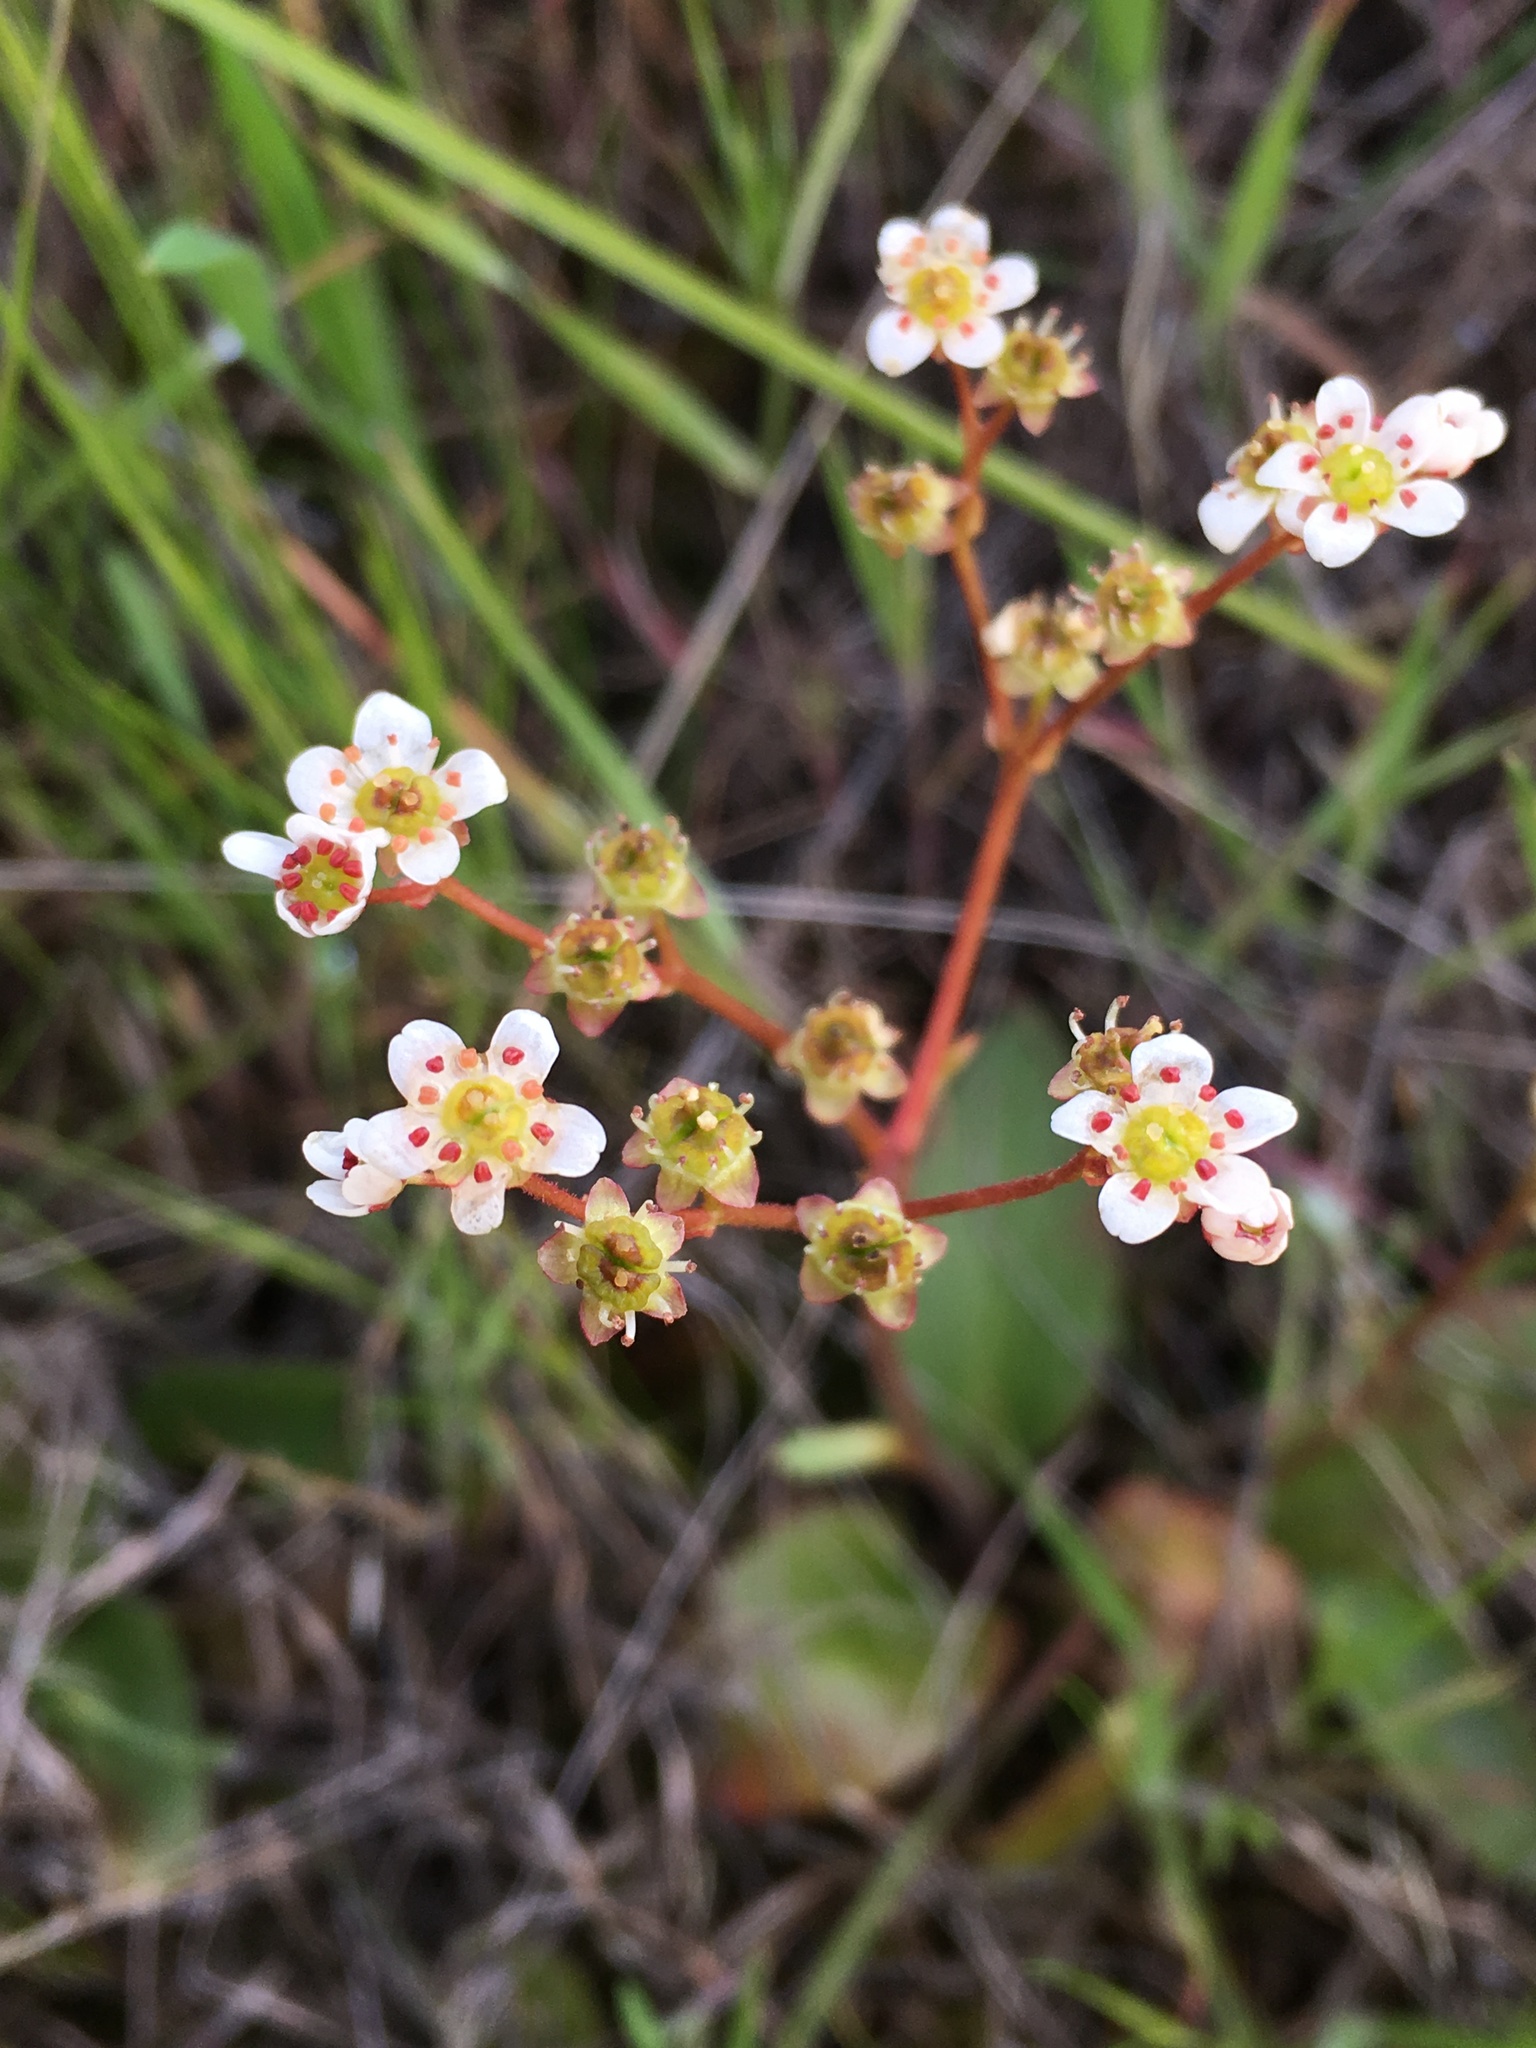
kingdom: Plantae
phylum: Tracheophyta
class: Magnoliopsida
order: Saxifragales
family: Saxifragaceae
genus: Micranthes
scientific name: Micranthes californica
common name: California saxifrage
